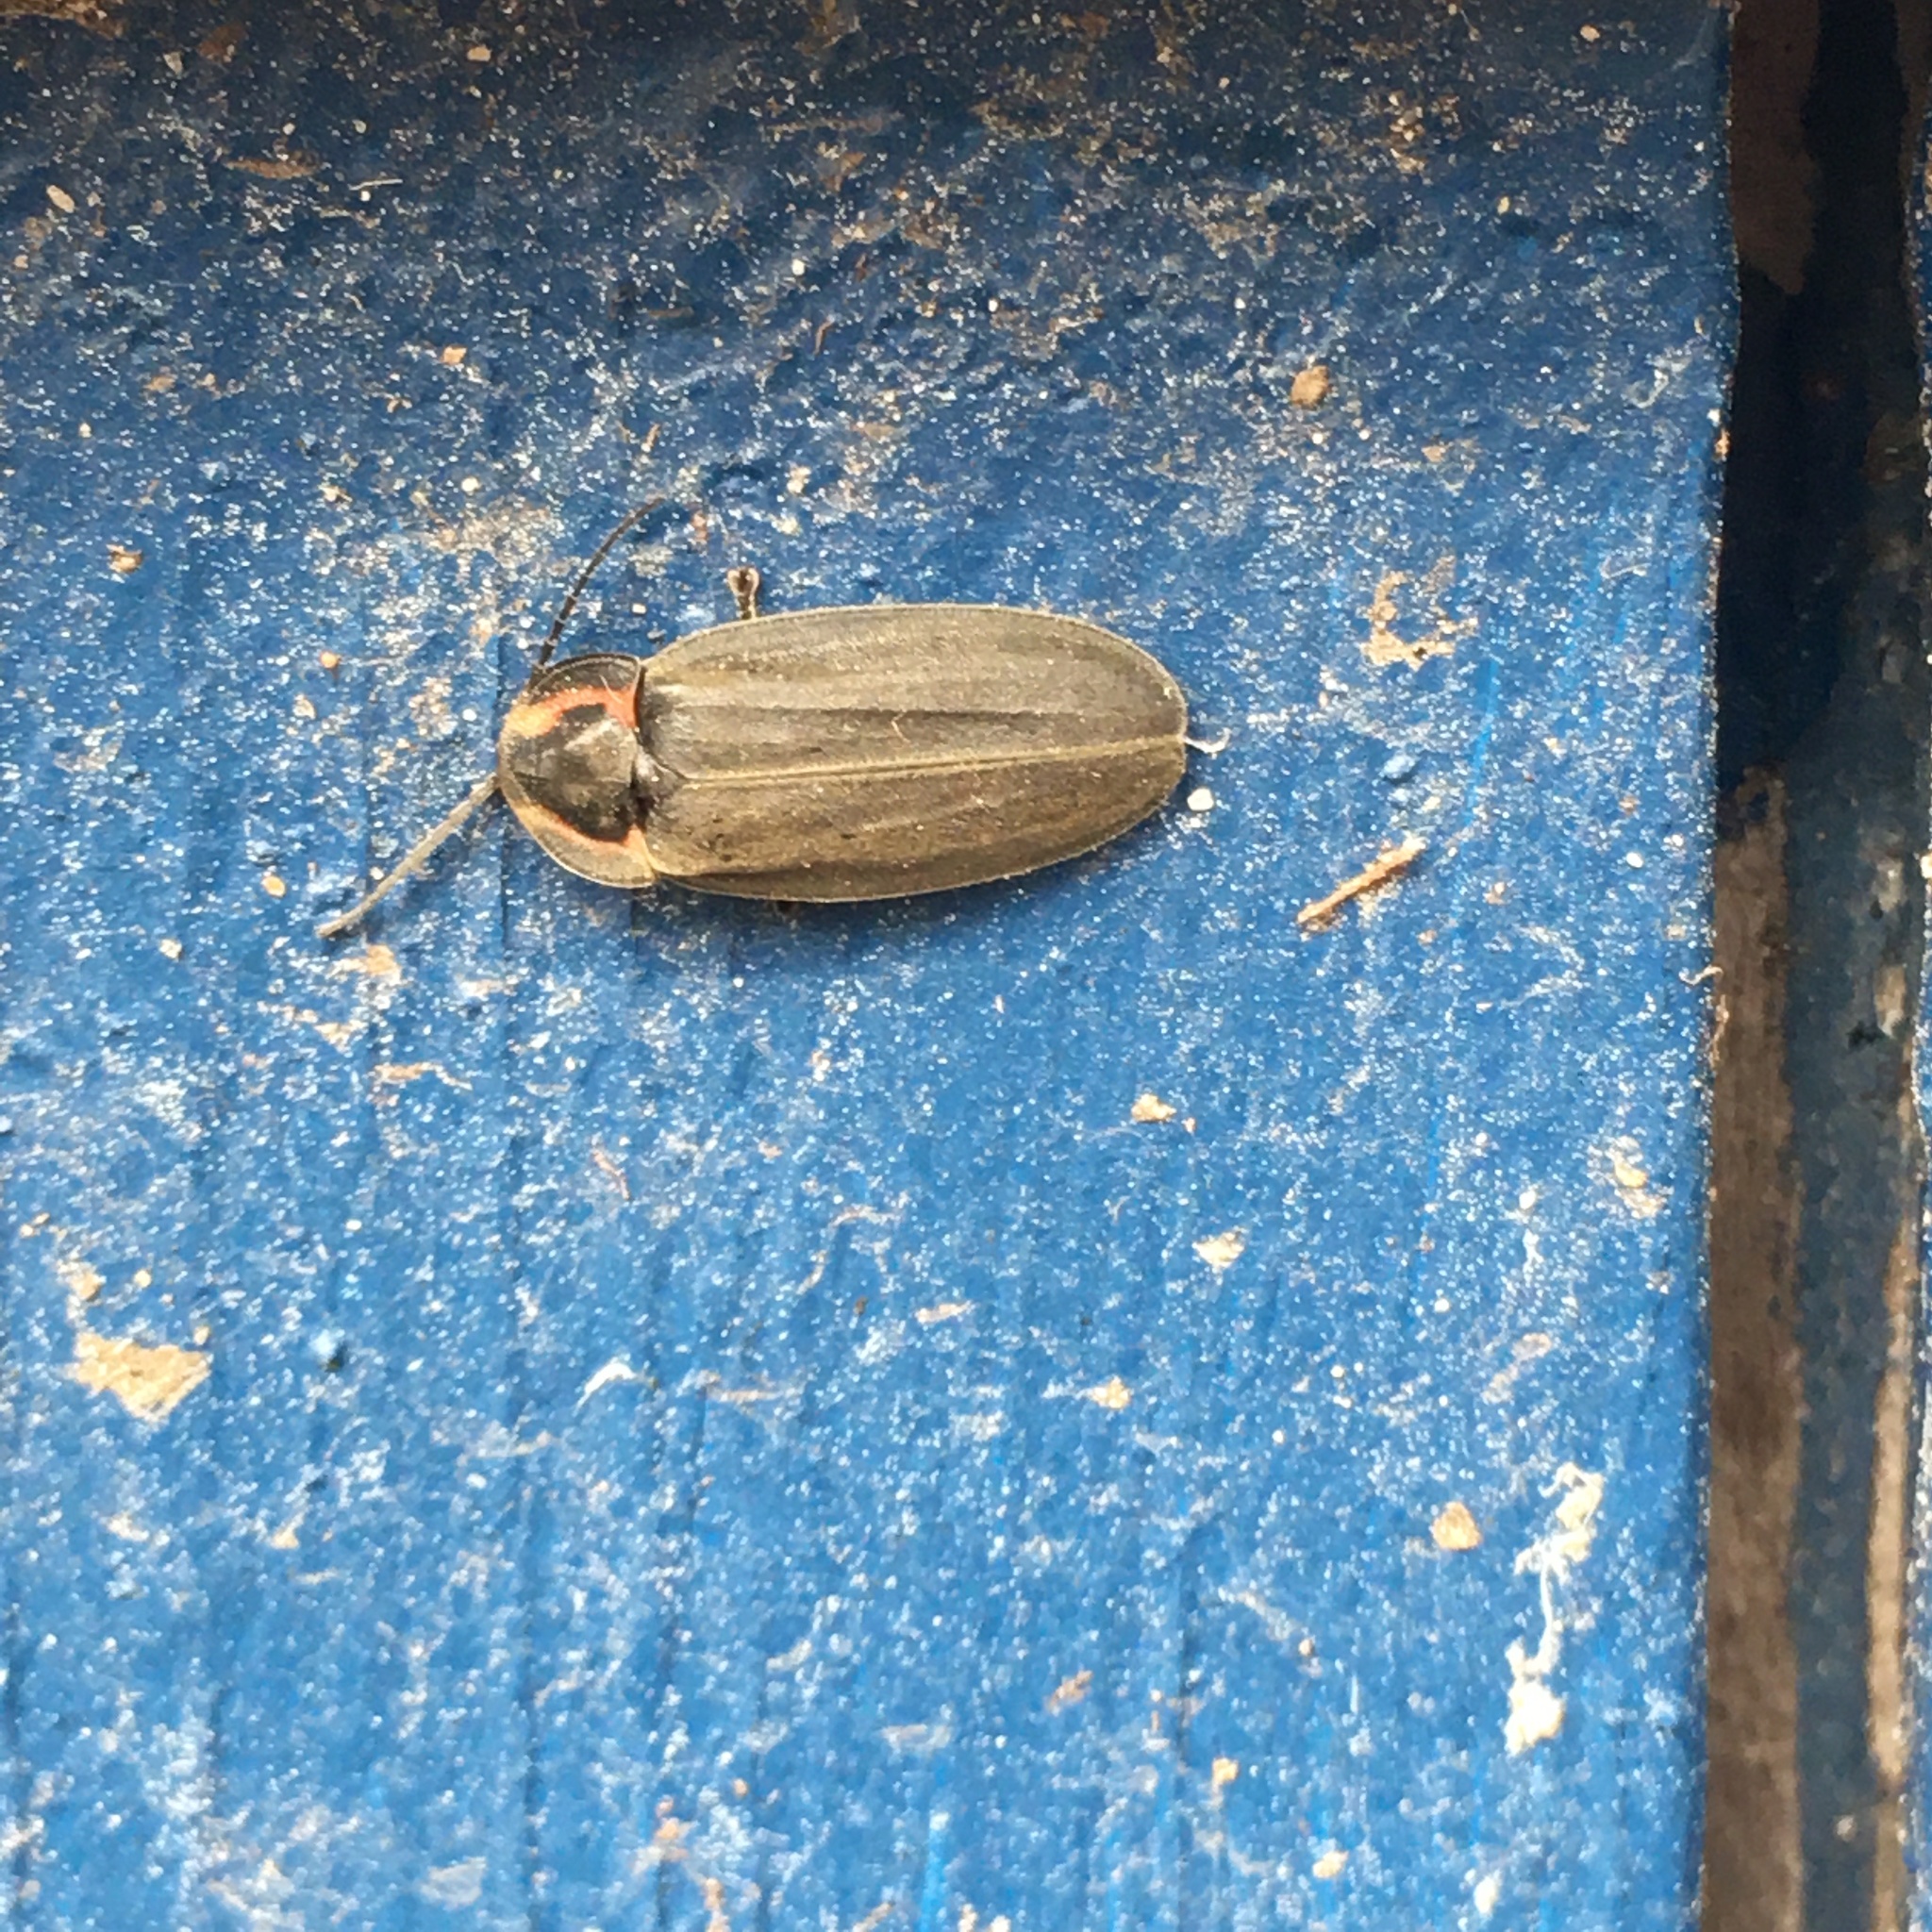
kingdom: Animalia
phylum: Arthropoda
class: Insecta
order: Coleoptera
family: Lampyridae
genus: Photinus
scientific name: Photinus corrusca
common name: Winter firefly
